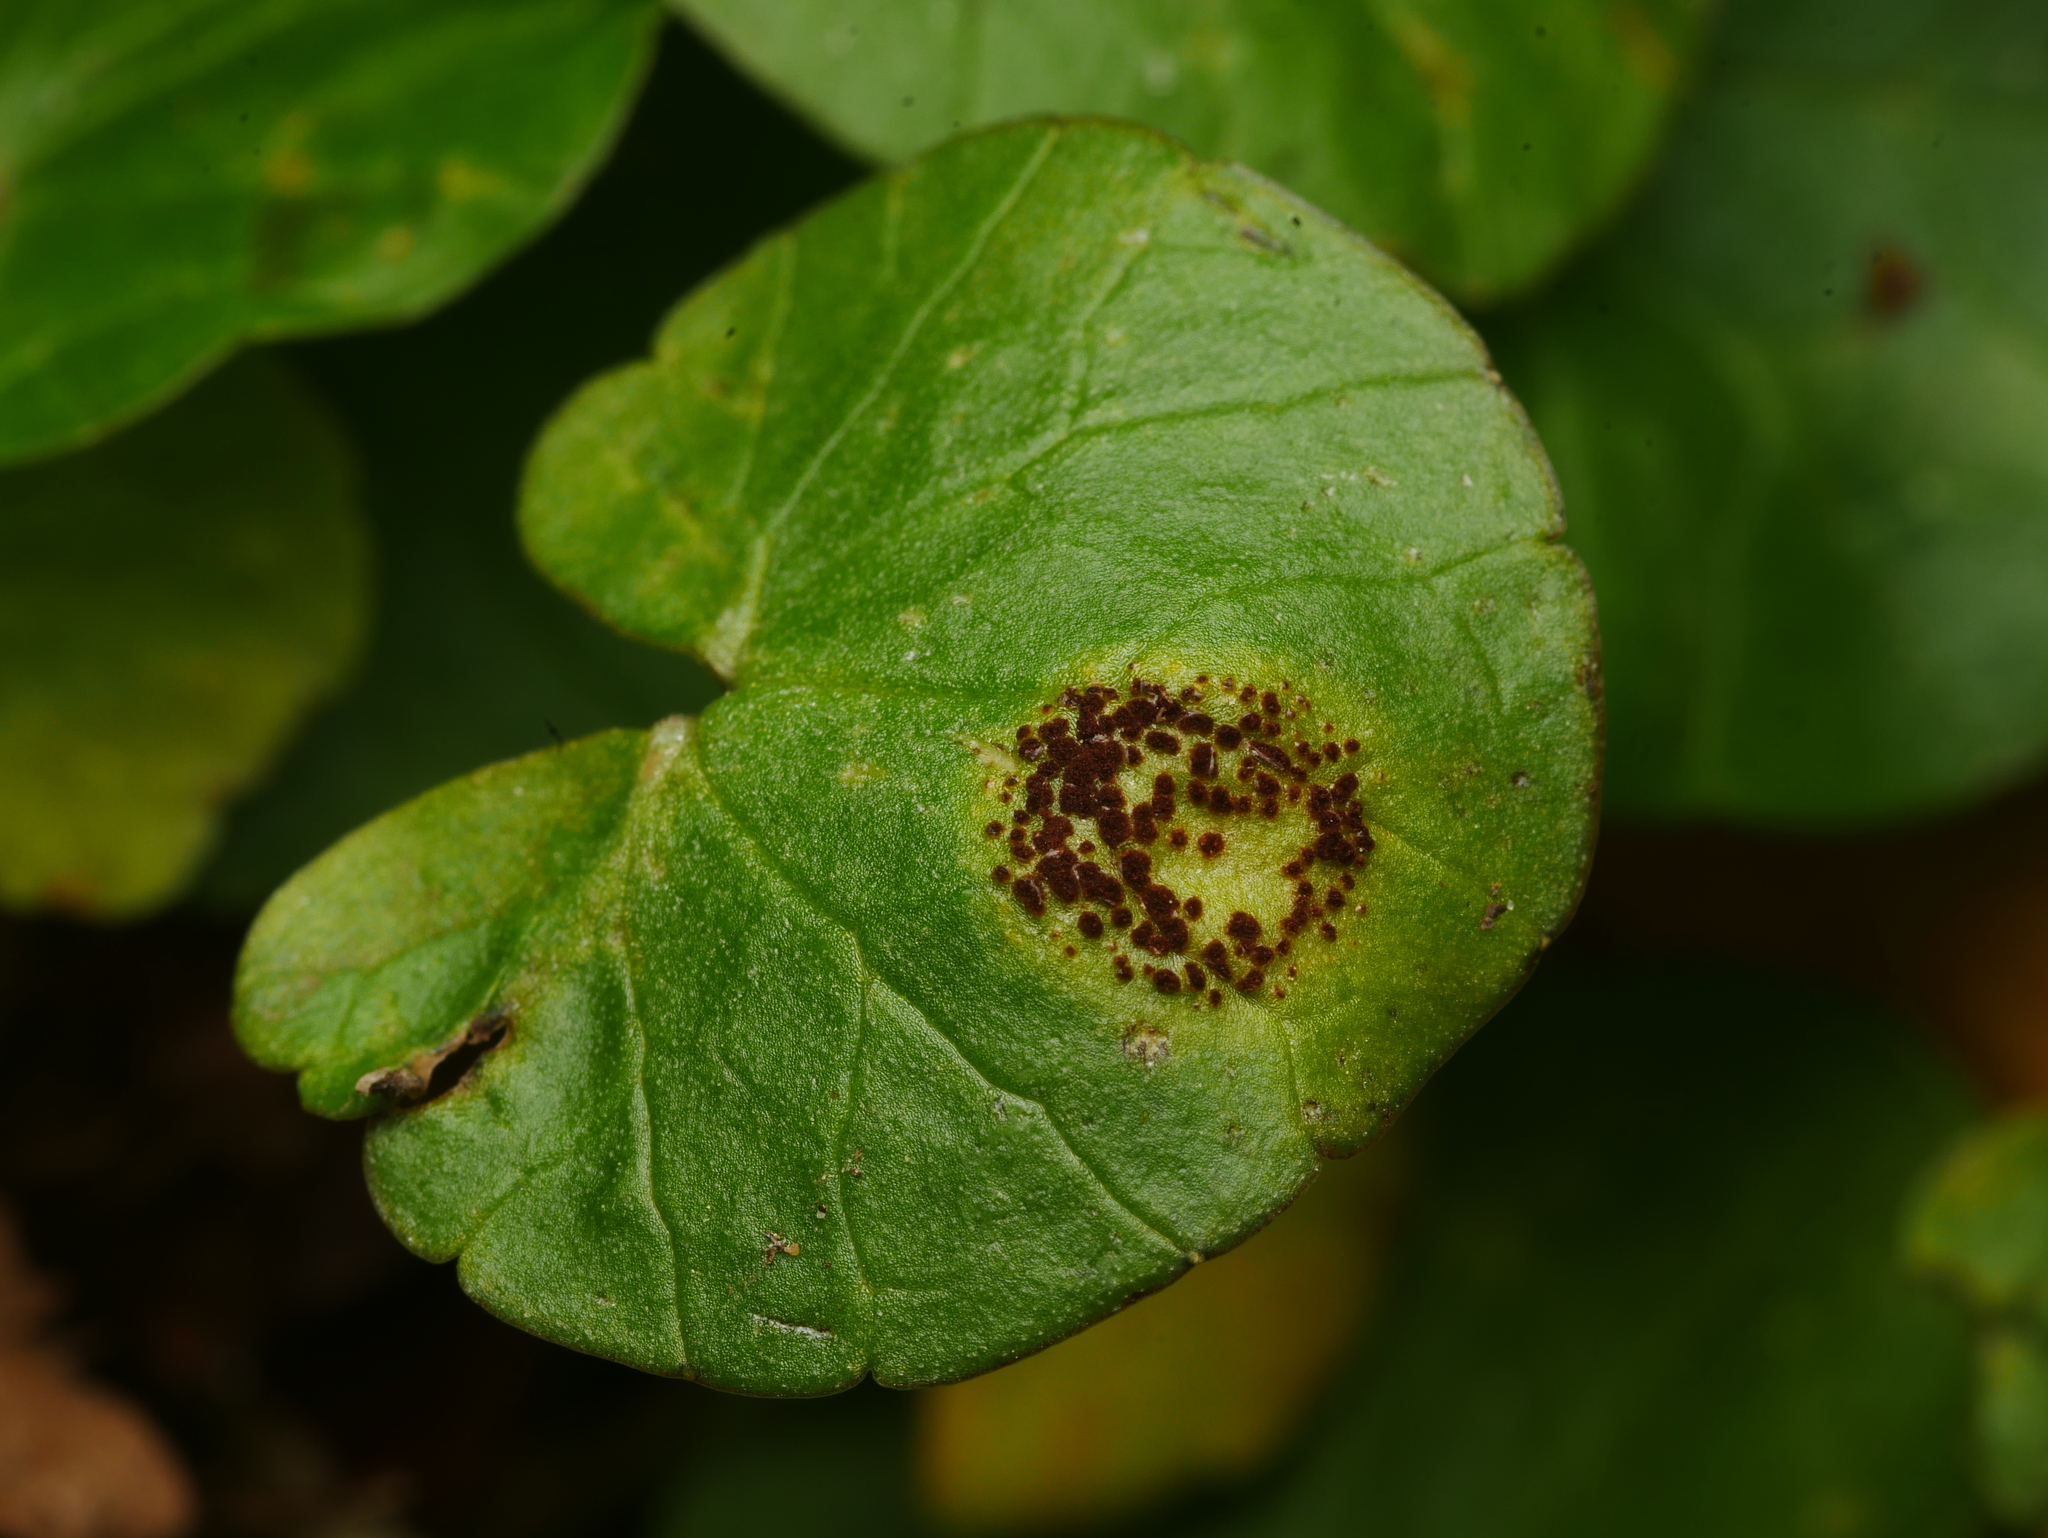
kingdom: Fungi
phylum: Basidiomycota
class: Pucciniomycetes
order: Pucciniales
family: Pucciniaceae
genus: Uromyces
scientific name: Uromyces ficariae
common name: Bitter chocolate rust
